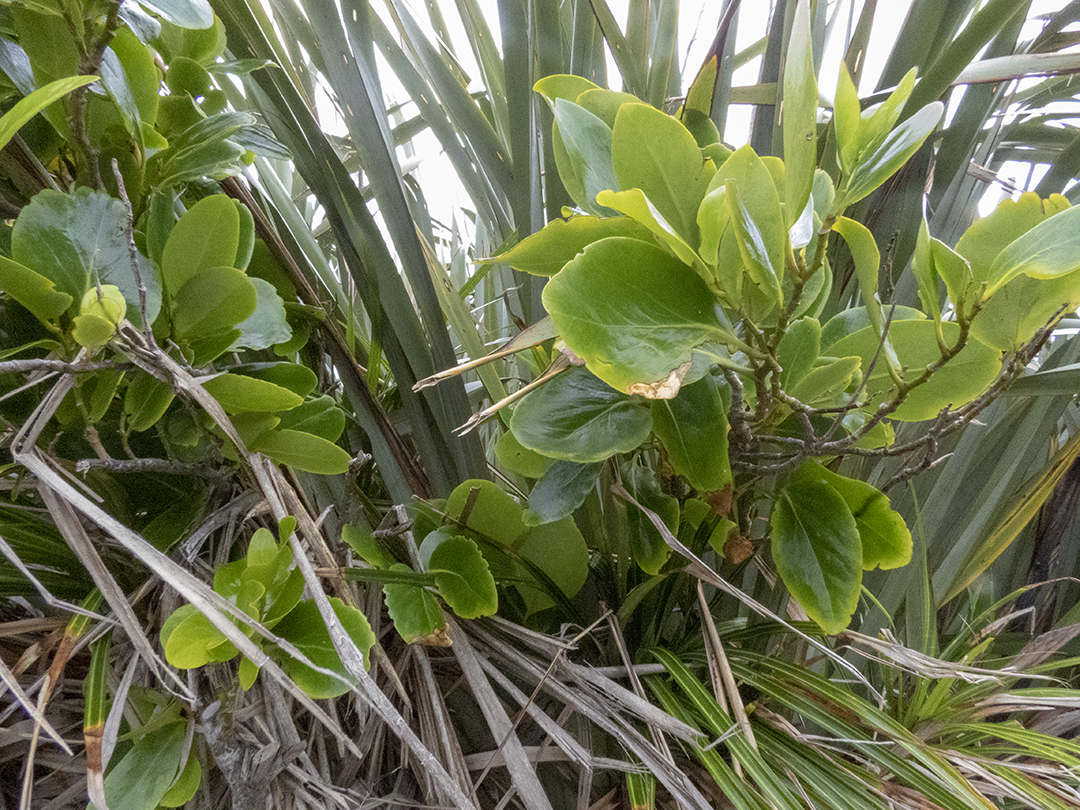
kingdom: Plantae
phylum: Tracheophyta
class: Magnoliopsida
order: Apiales
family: Griseliniaceae
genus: Griselinia
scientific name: Griselinia lucida
